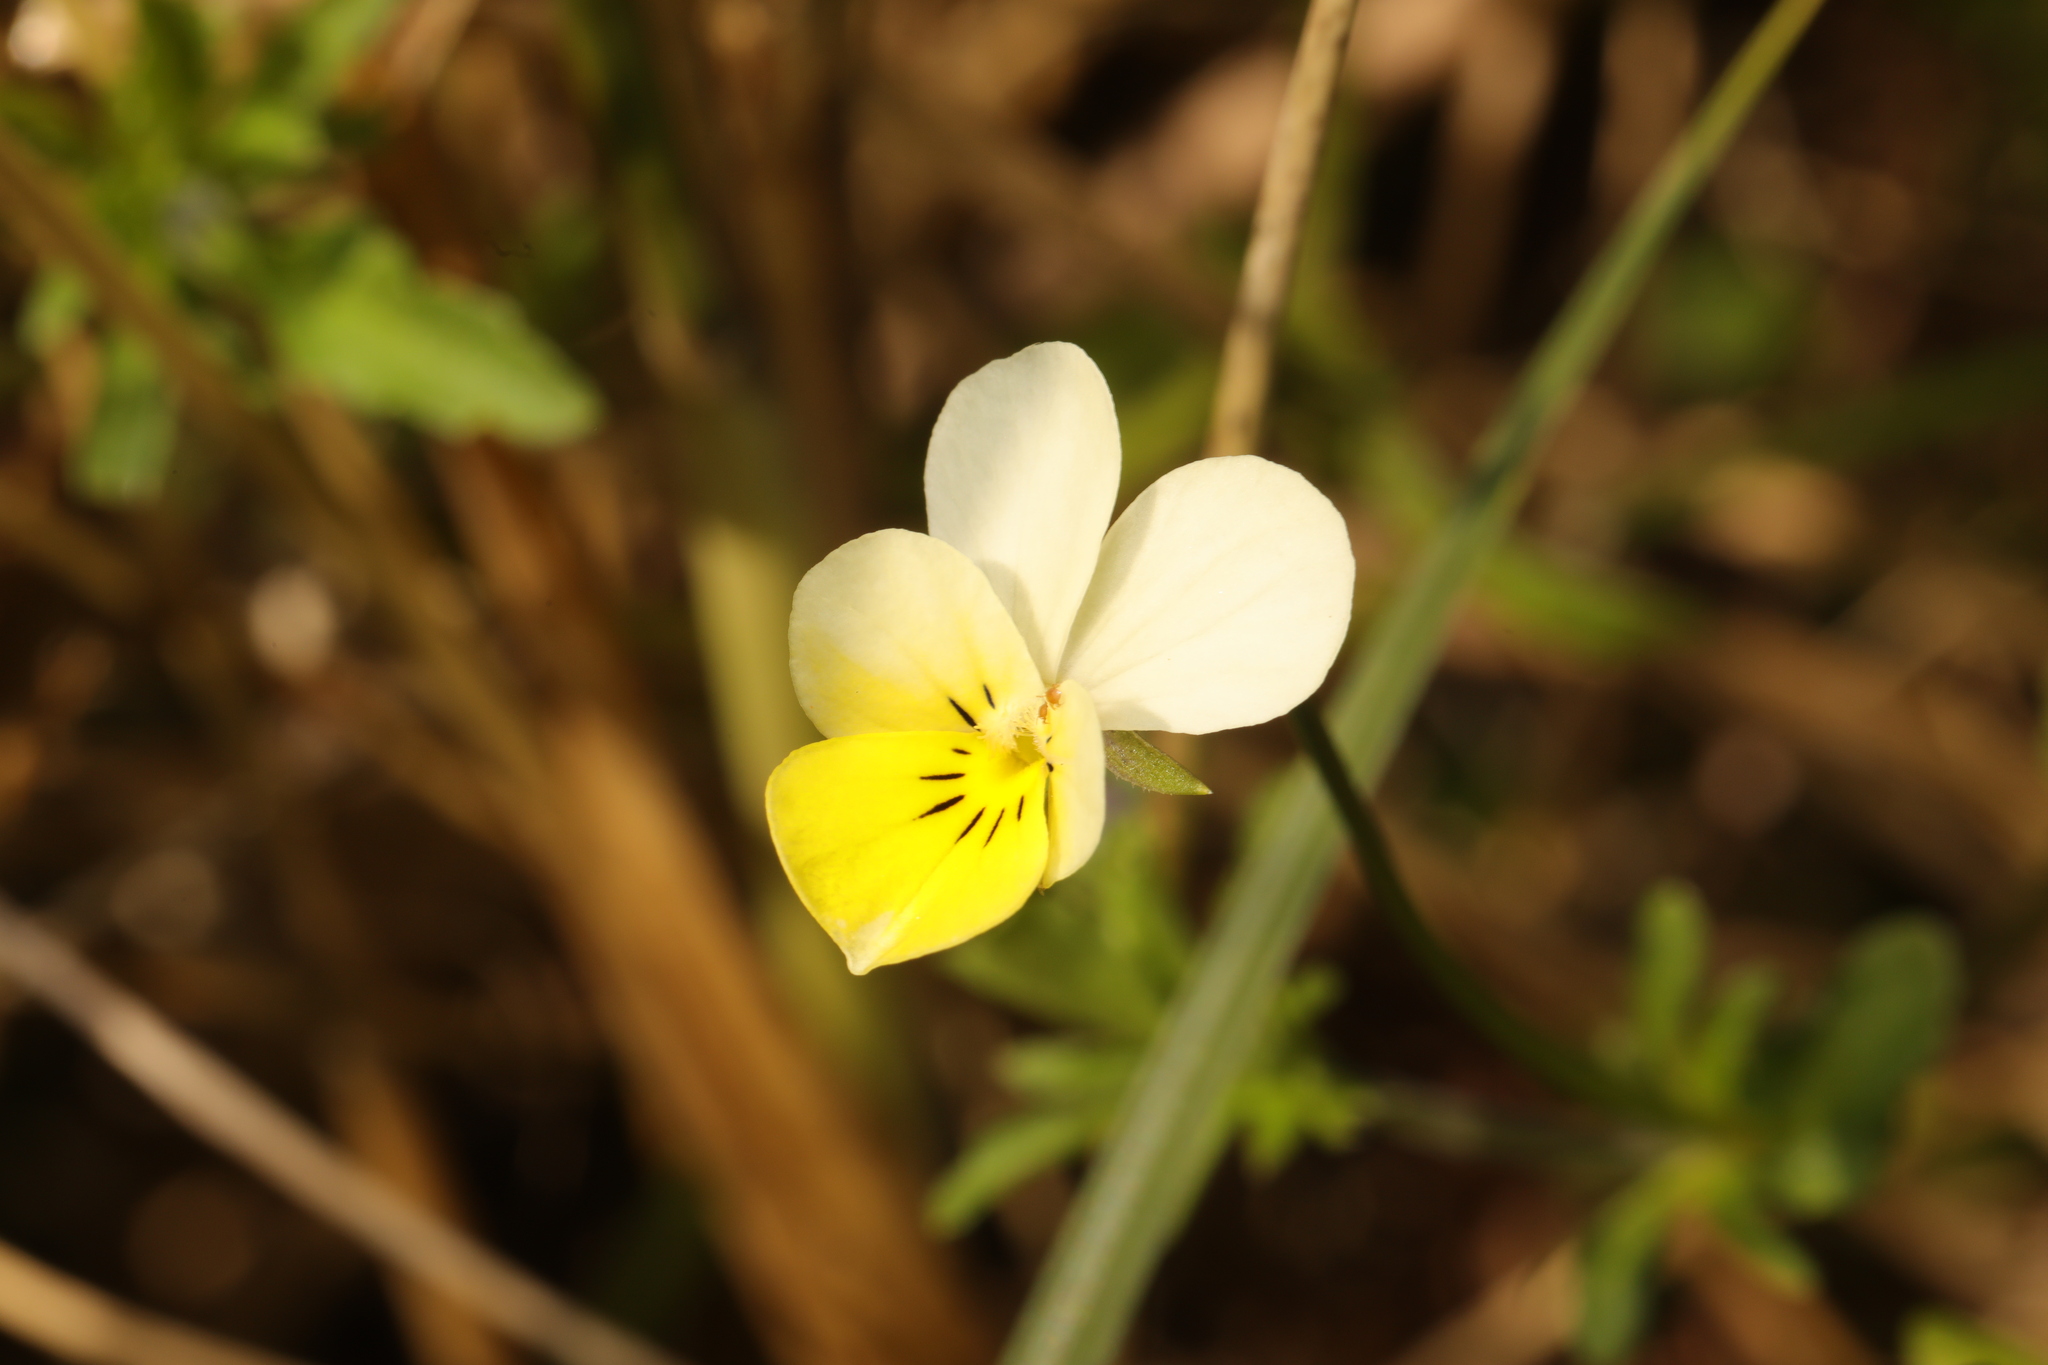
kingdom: Plantae
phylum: Tracheophyta
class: Magnoliopsida
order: Malpighiales
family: Violaceae
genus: Viola
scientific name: Viola arvensis
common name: Field pansy
